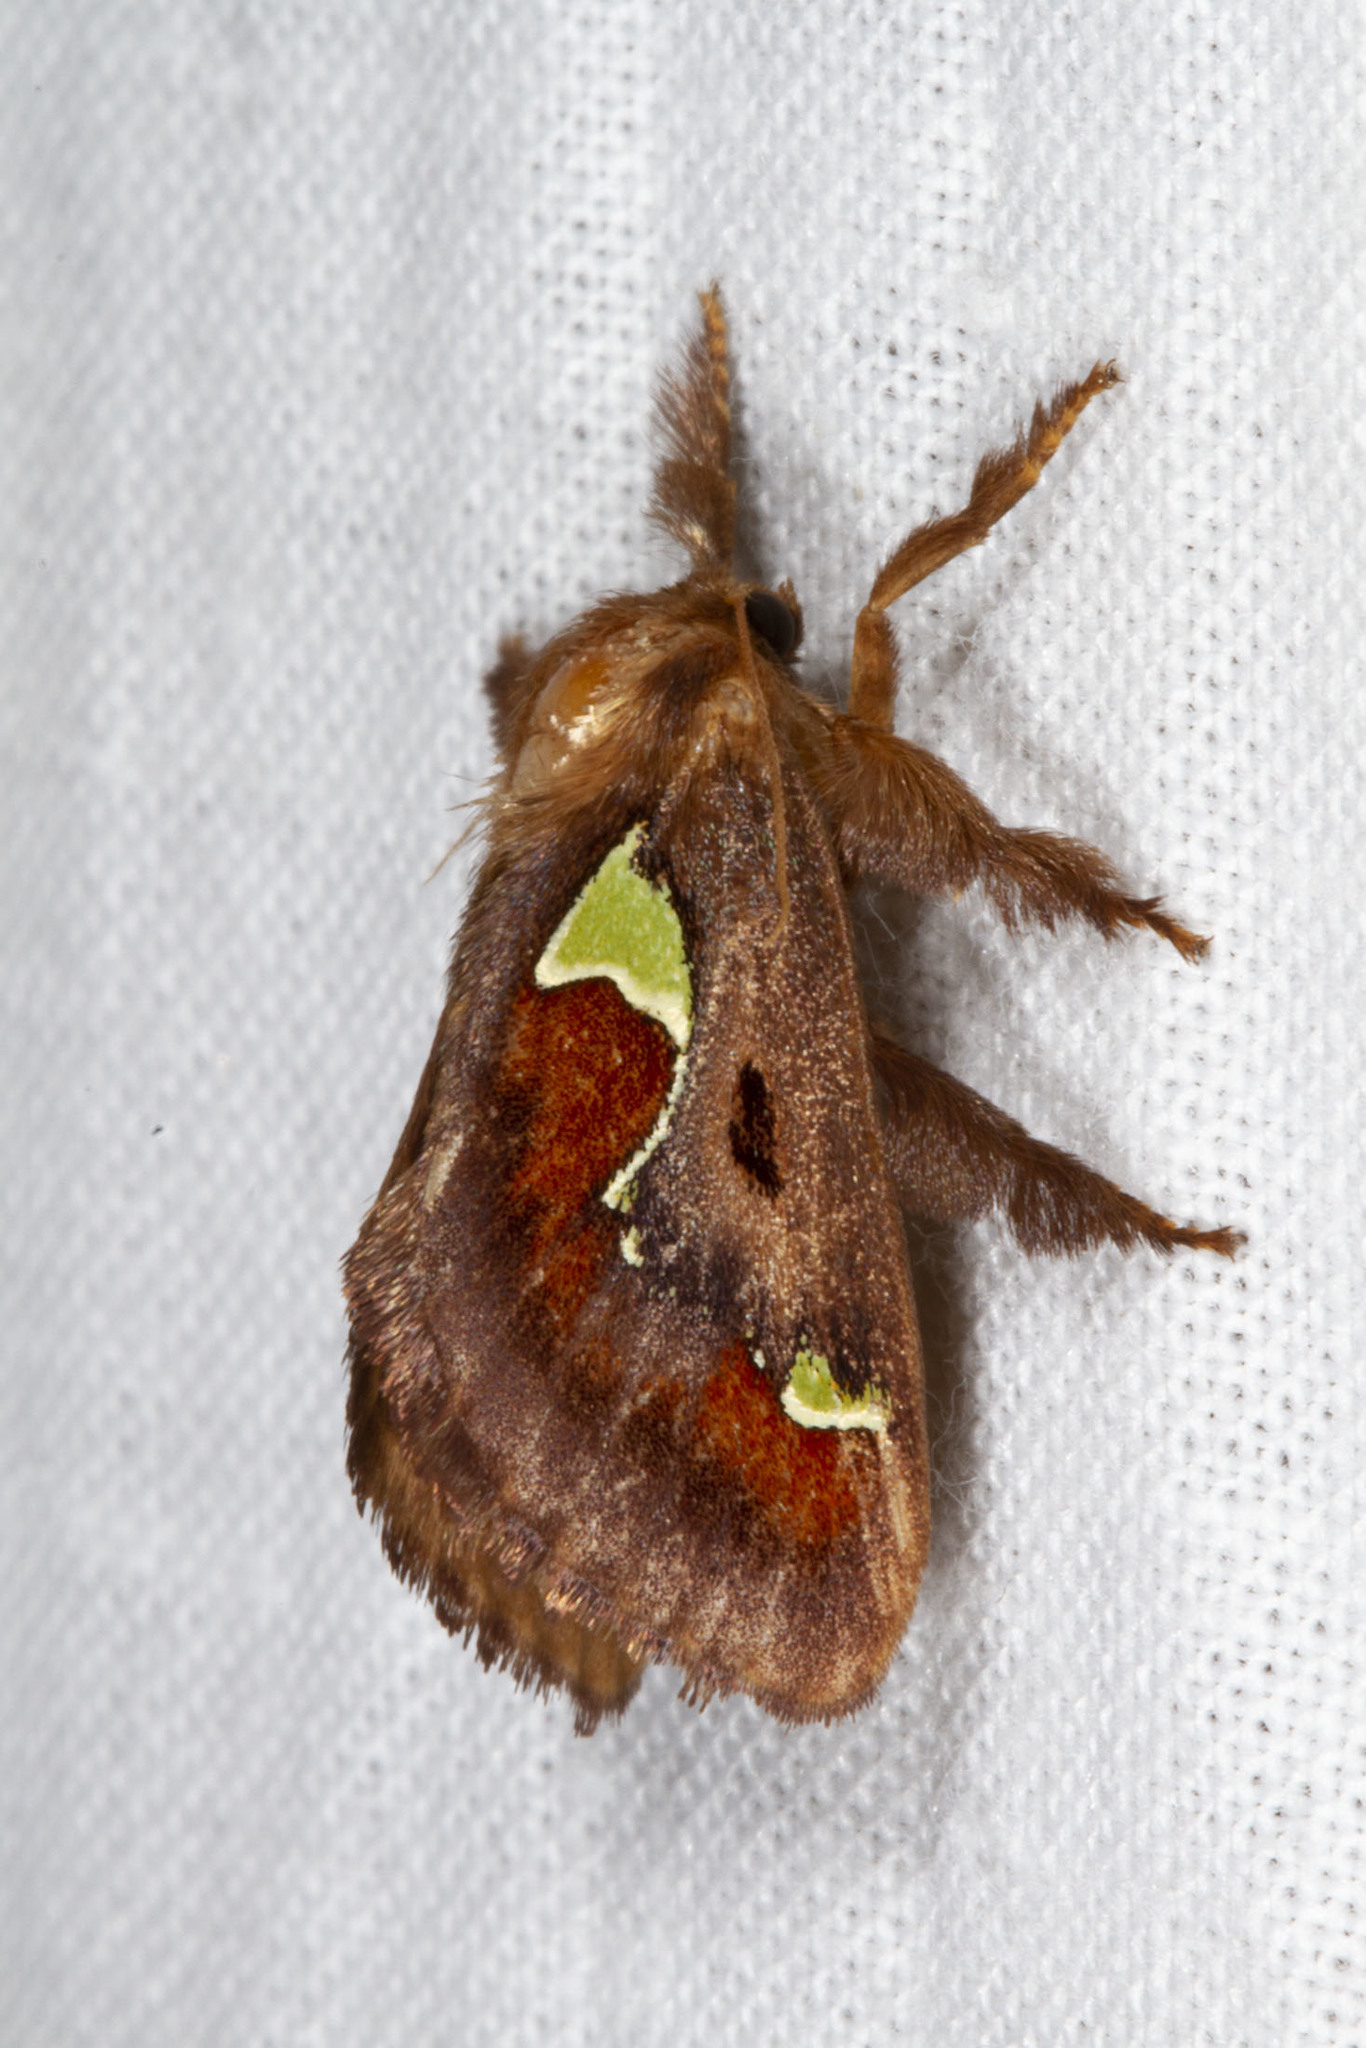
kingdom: Animalia
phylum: Arthropoda
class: Insecta
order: Lepidoptera
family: Limacodidae
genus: Euclea
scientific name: Euclea delphinii
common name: Spiny oak-slug moth
